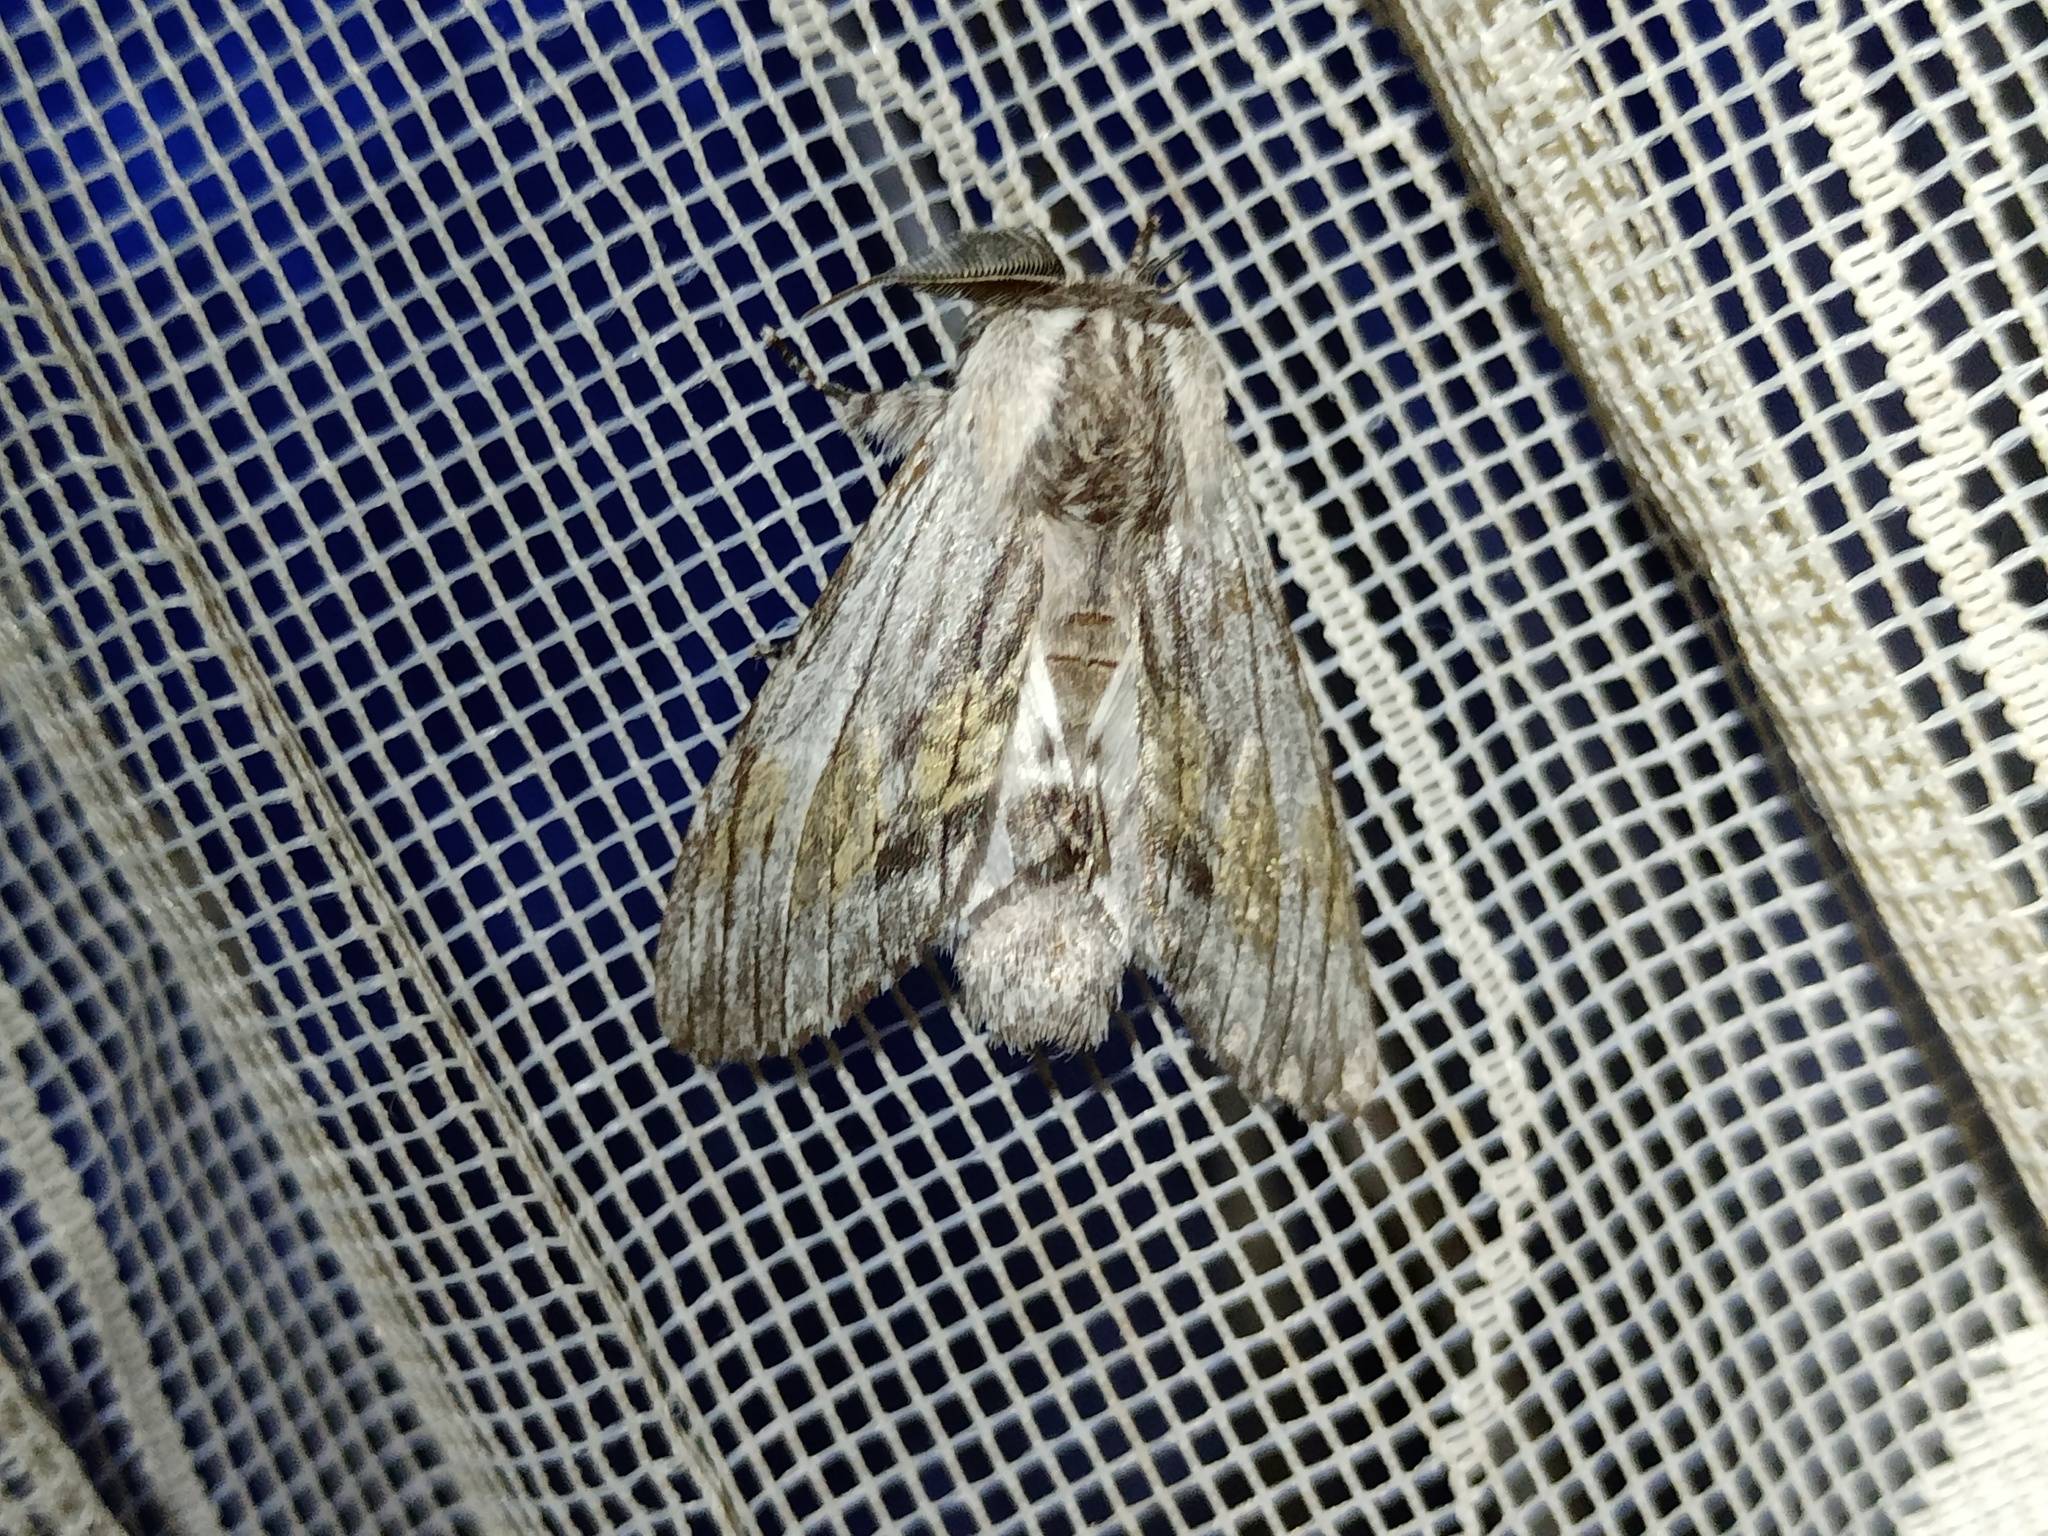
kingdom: Animalia
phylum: Arthropoda
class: Insecta
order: Lepidoptera
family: Notodontidae
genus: Harpyia
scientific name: Harpyia milhauseri
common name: Tawny prominent
